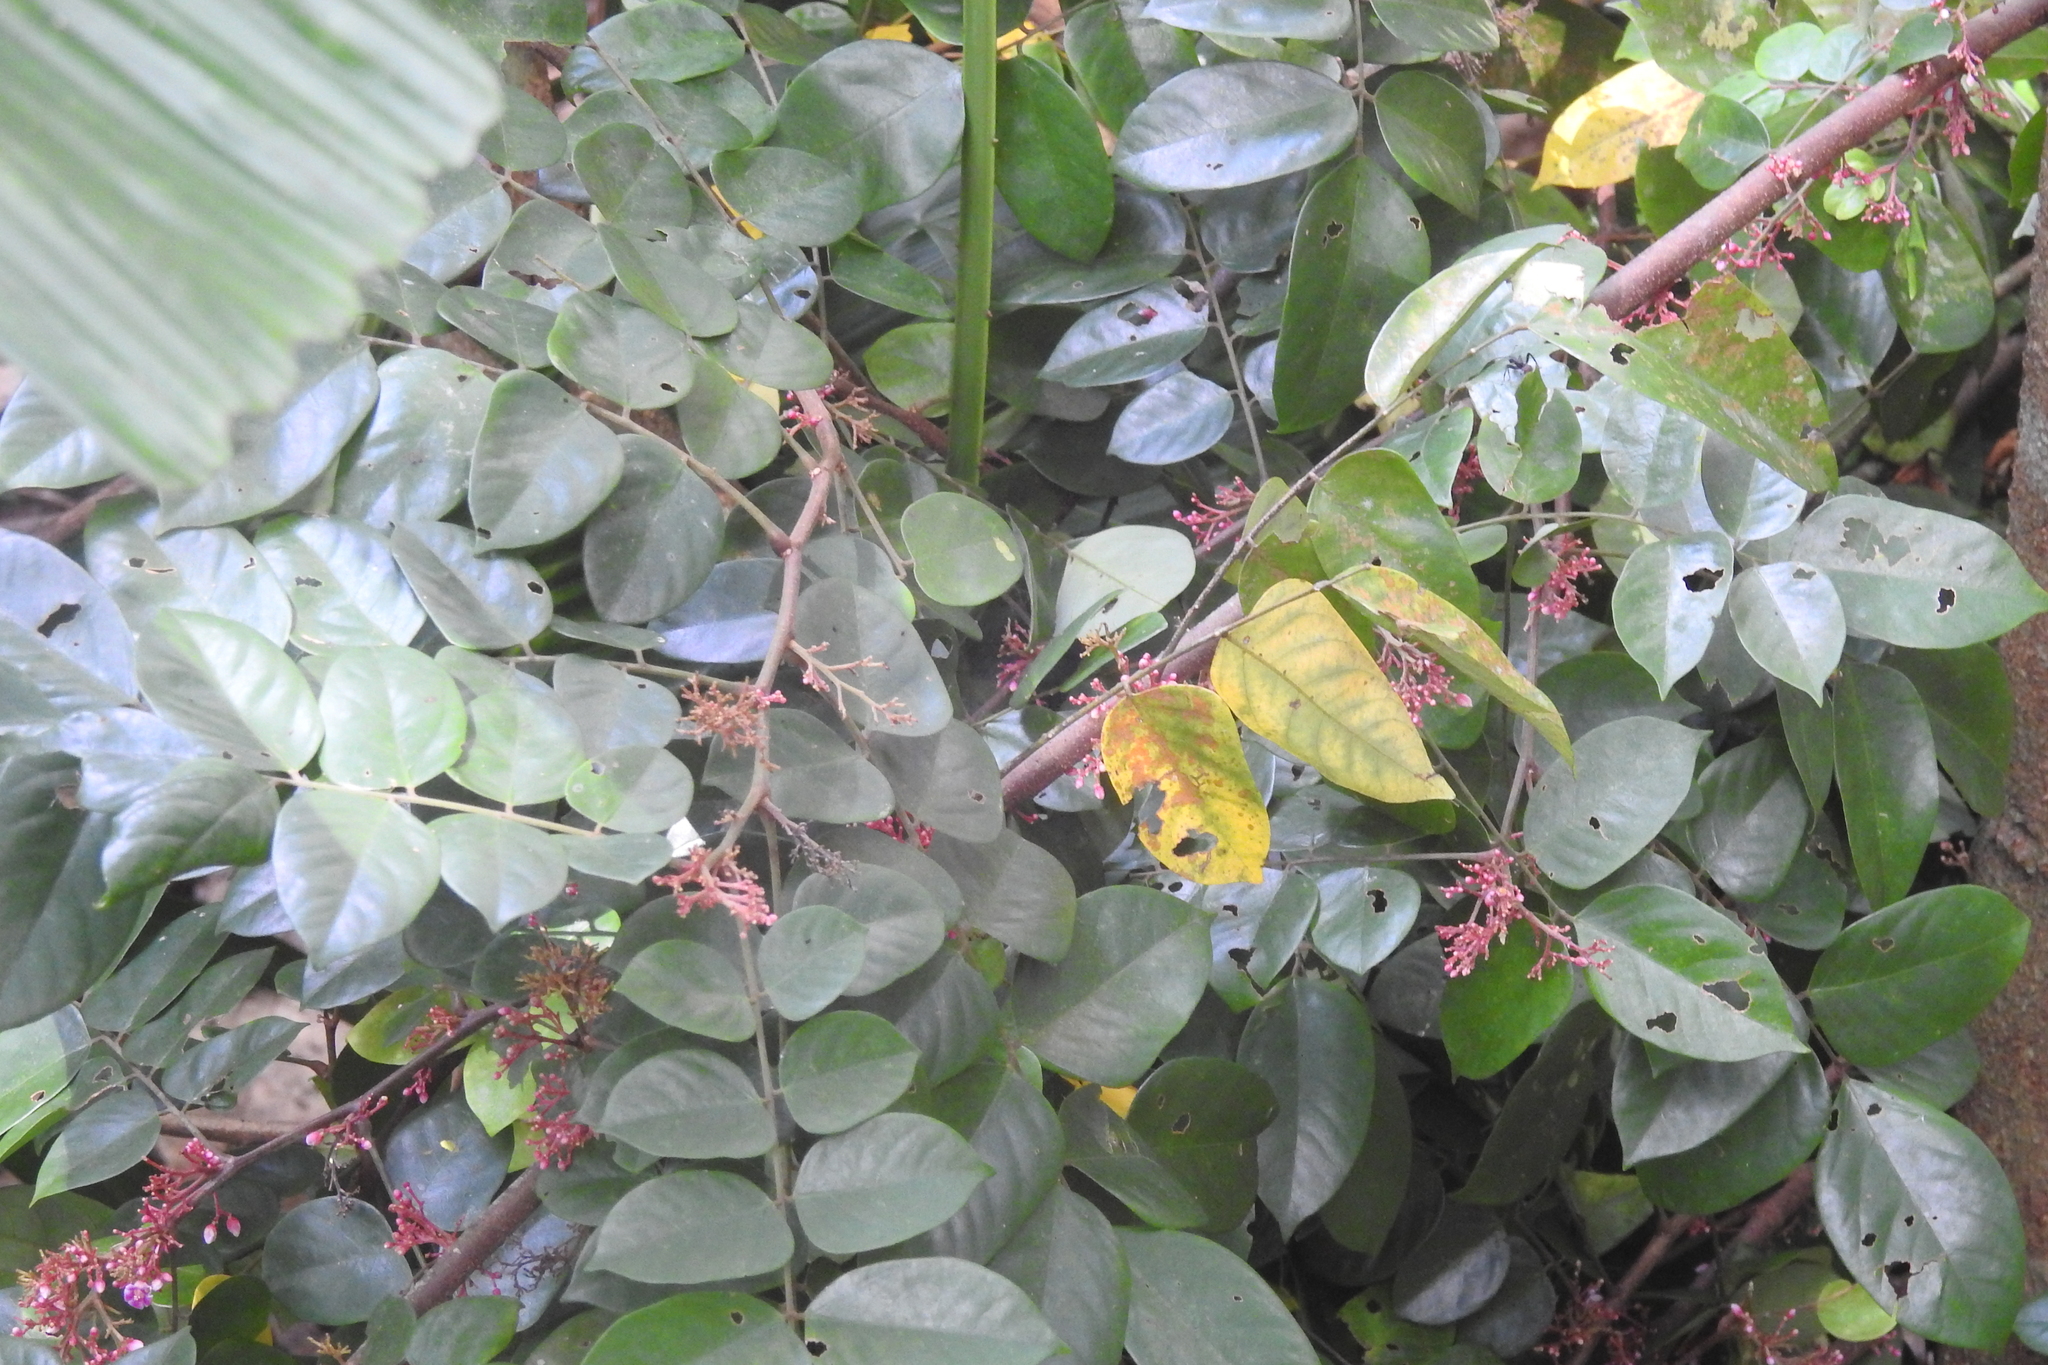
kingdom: Plantae
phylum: Tracheophyta
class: Magnoliopsida
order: Oxalidales
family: Oxalidaceae
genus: Averrhoa
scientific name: Averrhoa carambola
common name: Blimbing
